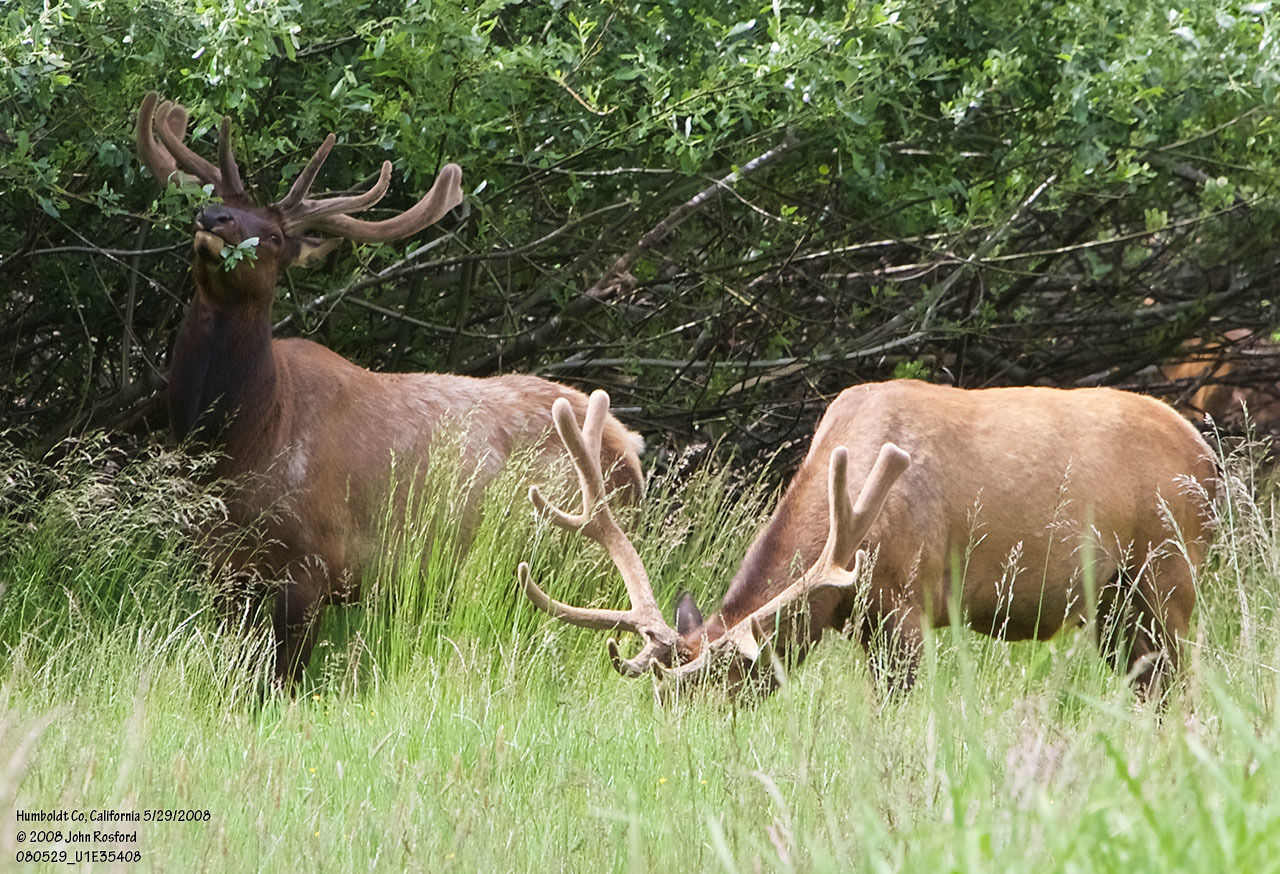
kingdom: Animalia
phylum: Chordata
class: Mammalia
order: Artiodactyla
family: Cervidae
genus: Cervus
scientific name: Cervus elaphus
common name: Red deer
